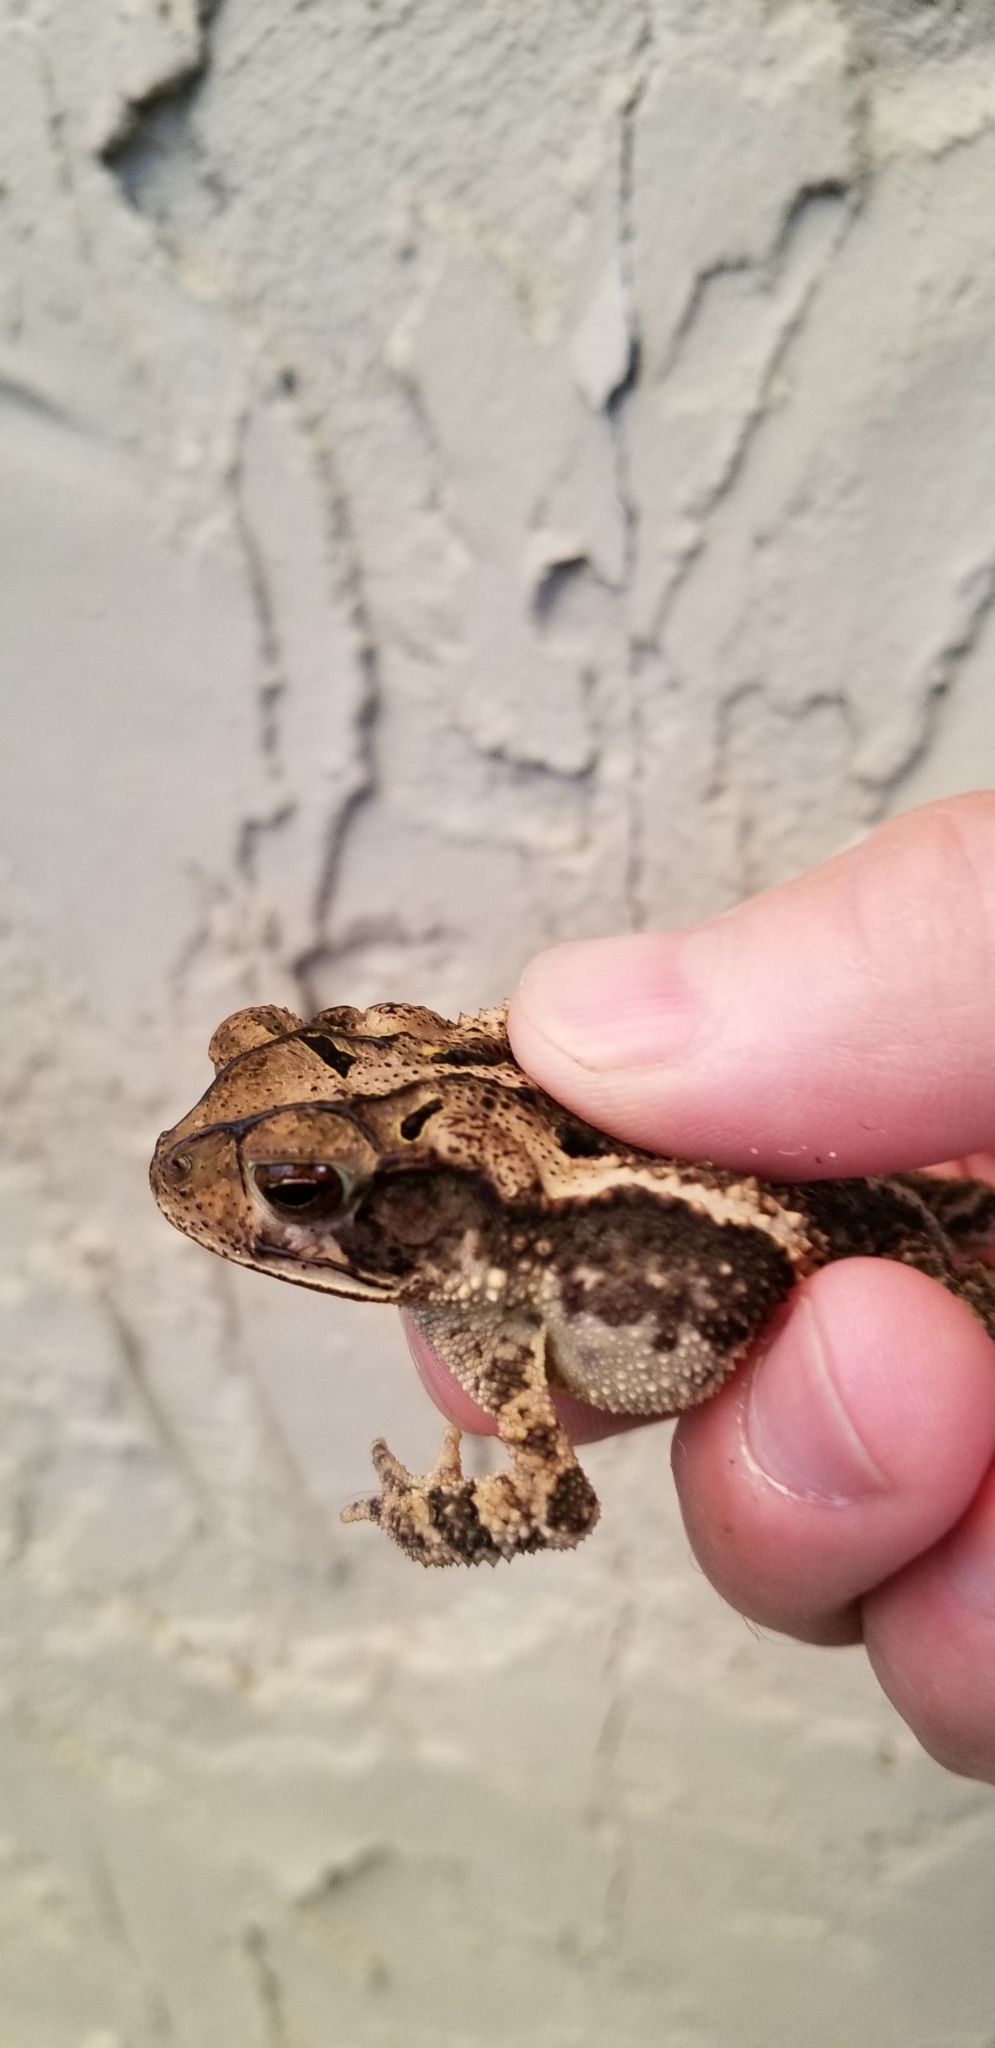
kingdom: Animalia
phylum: Chordata
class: Amphibia
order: Anura
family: Bufonidae
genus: Incilius
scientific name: Incilius nebulifer
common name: Gulf coast toad
